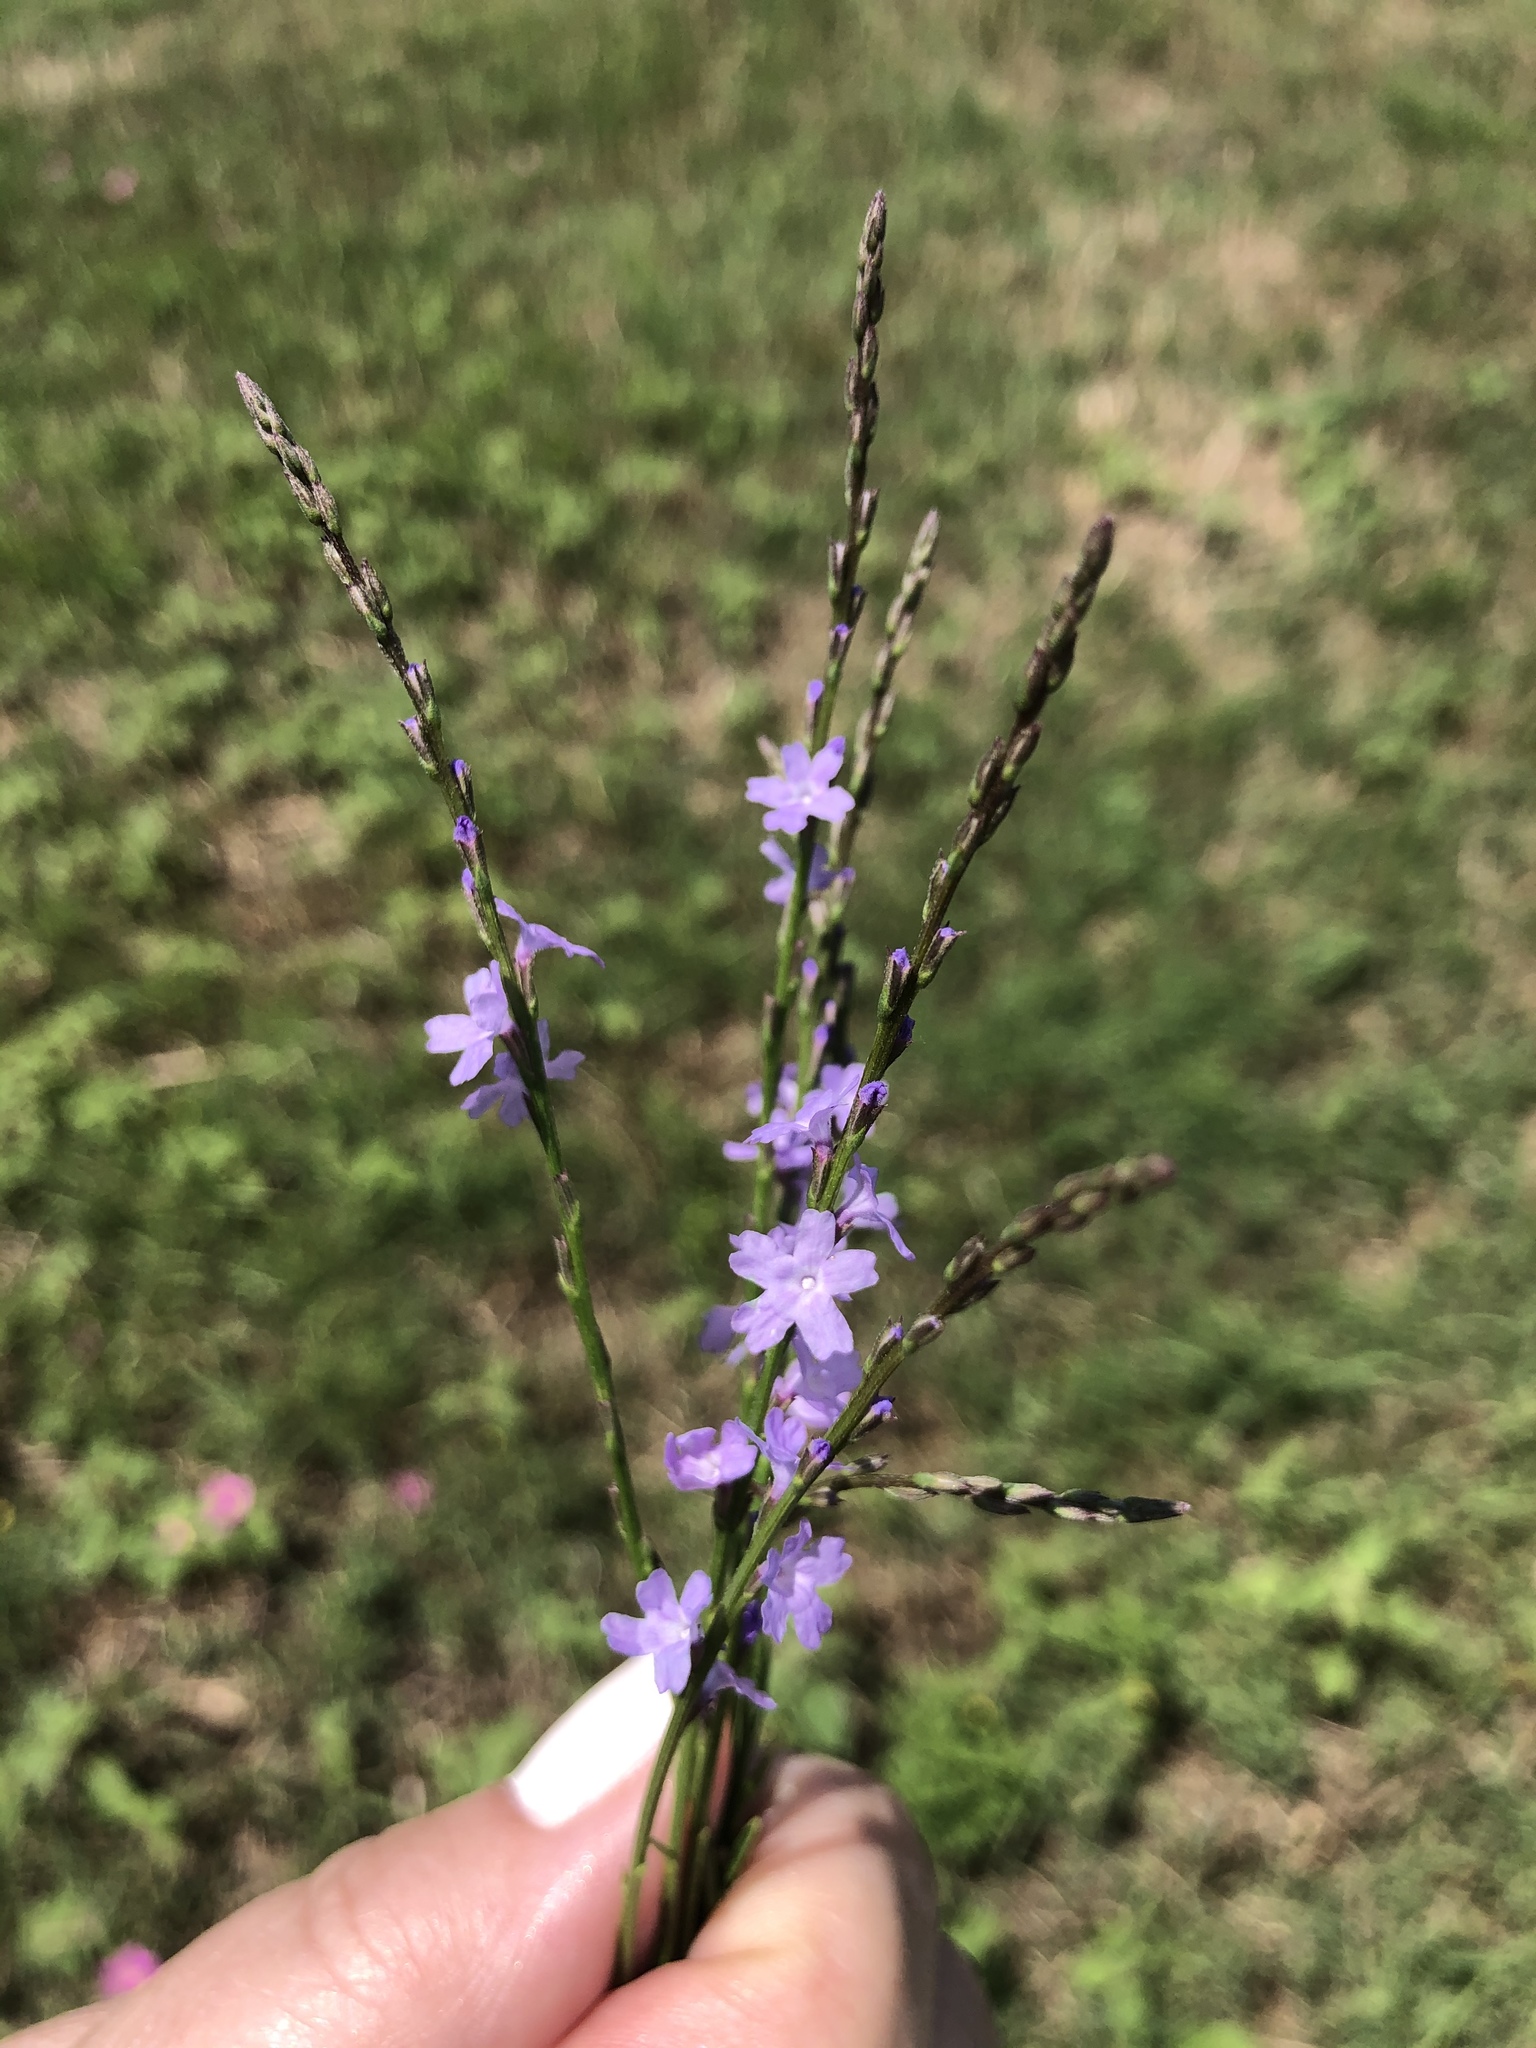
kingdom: Plantae
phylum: Tracheophyta
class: Magnoliopsida
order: Lamiales
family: Verbenaceae
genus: Verbena
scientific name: Verbena halei
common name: Texas vervain
